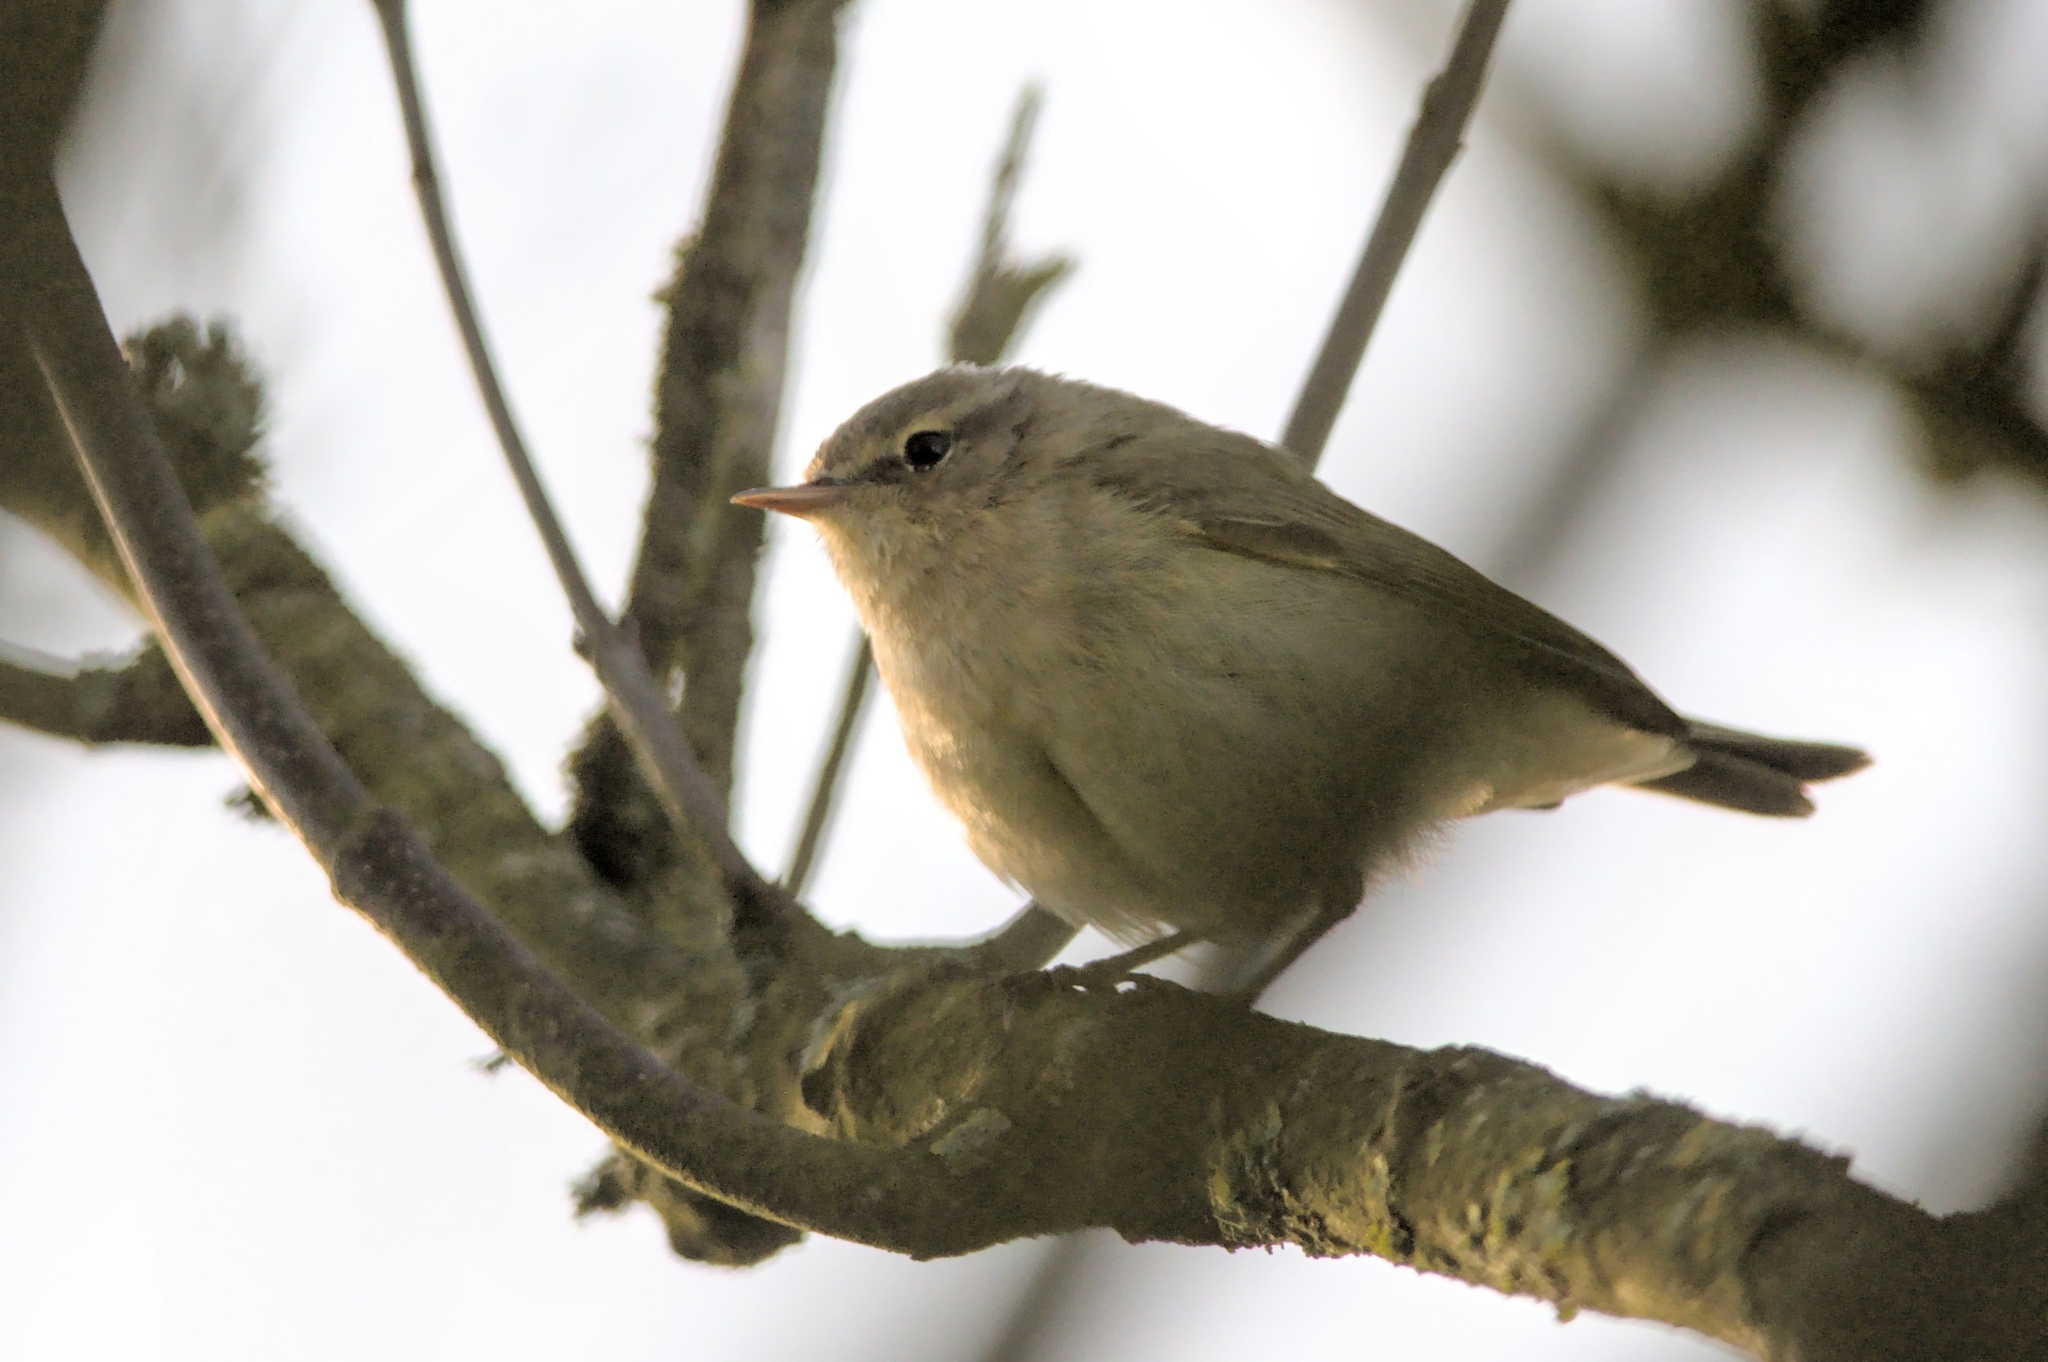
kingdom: Animalia
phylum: Chordata
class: Aves
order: Passeriformes
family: Phylloscopidae
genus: Phylloscopus
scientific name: Phylloscopus collybita
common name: Common chiffchaff
